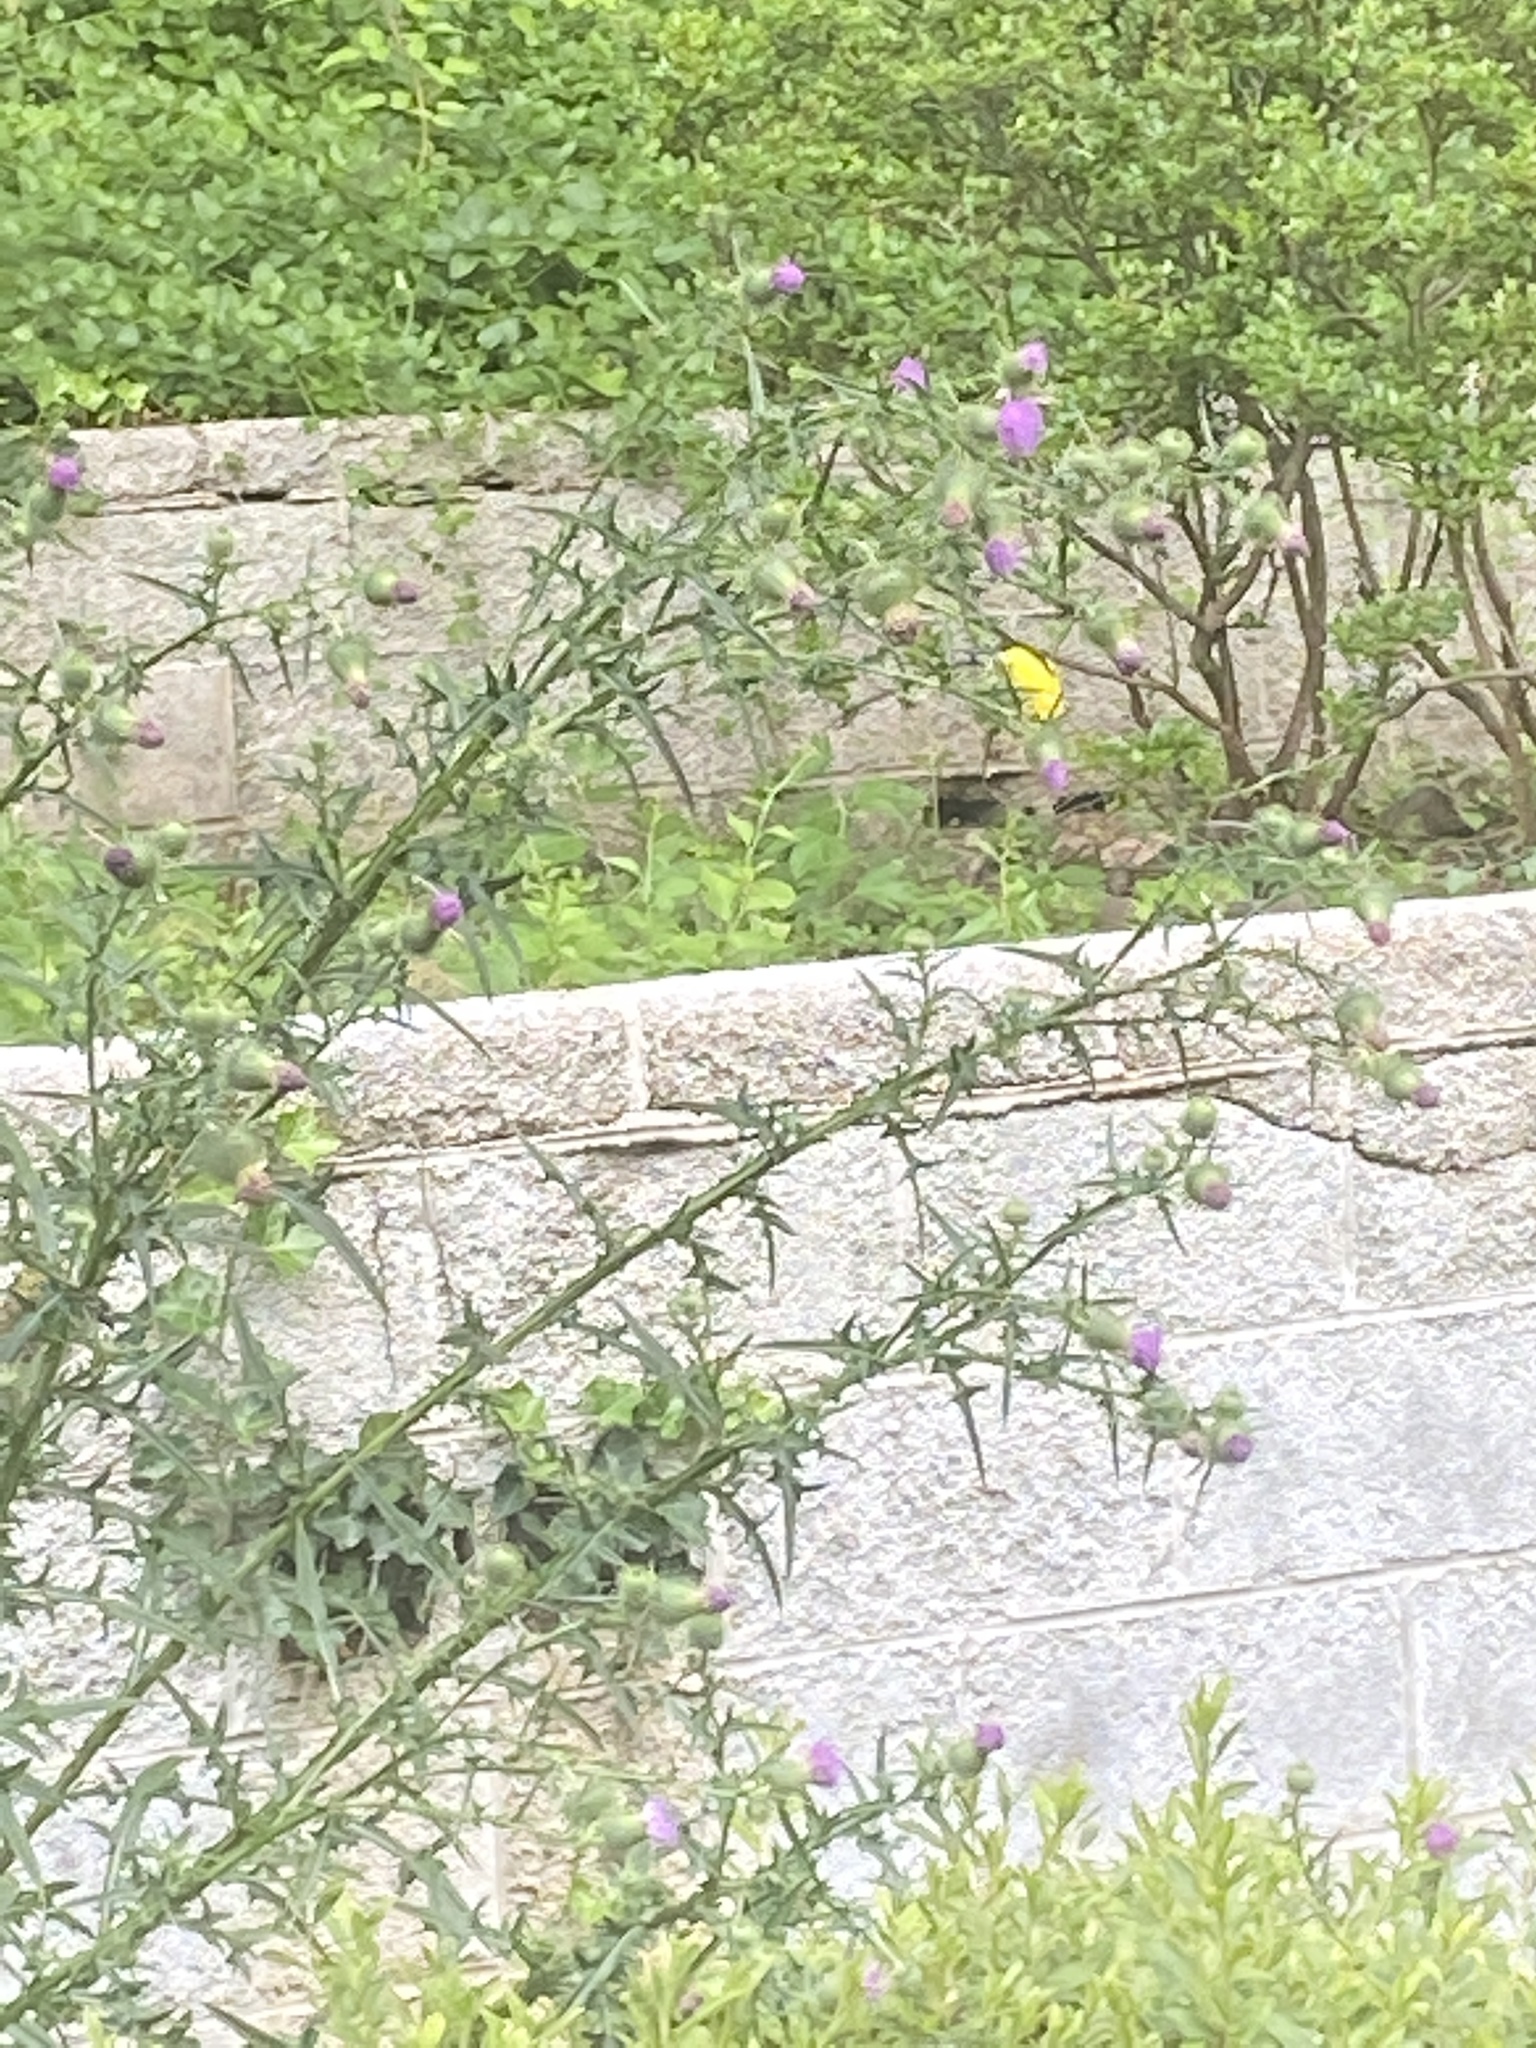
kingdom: Animalia
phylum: Chordata
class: Aves
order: Passeriformes
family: Fringillidae
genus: Spinus
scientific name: Spinus tristis
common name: American goldfinch
